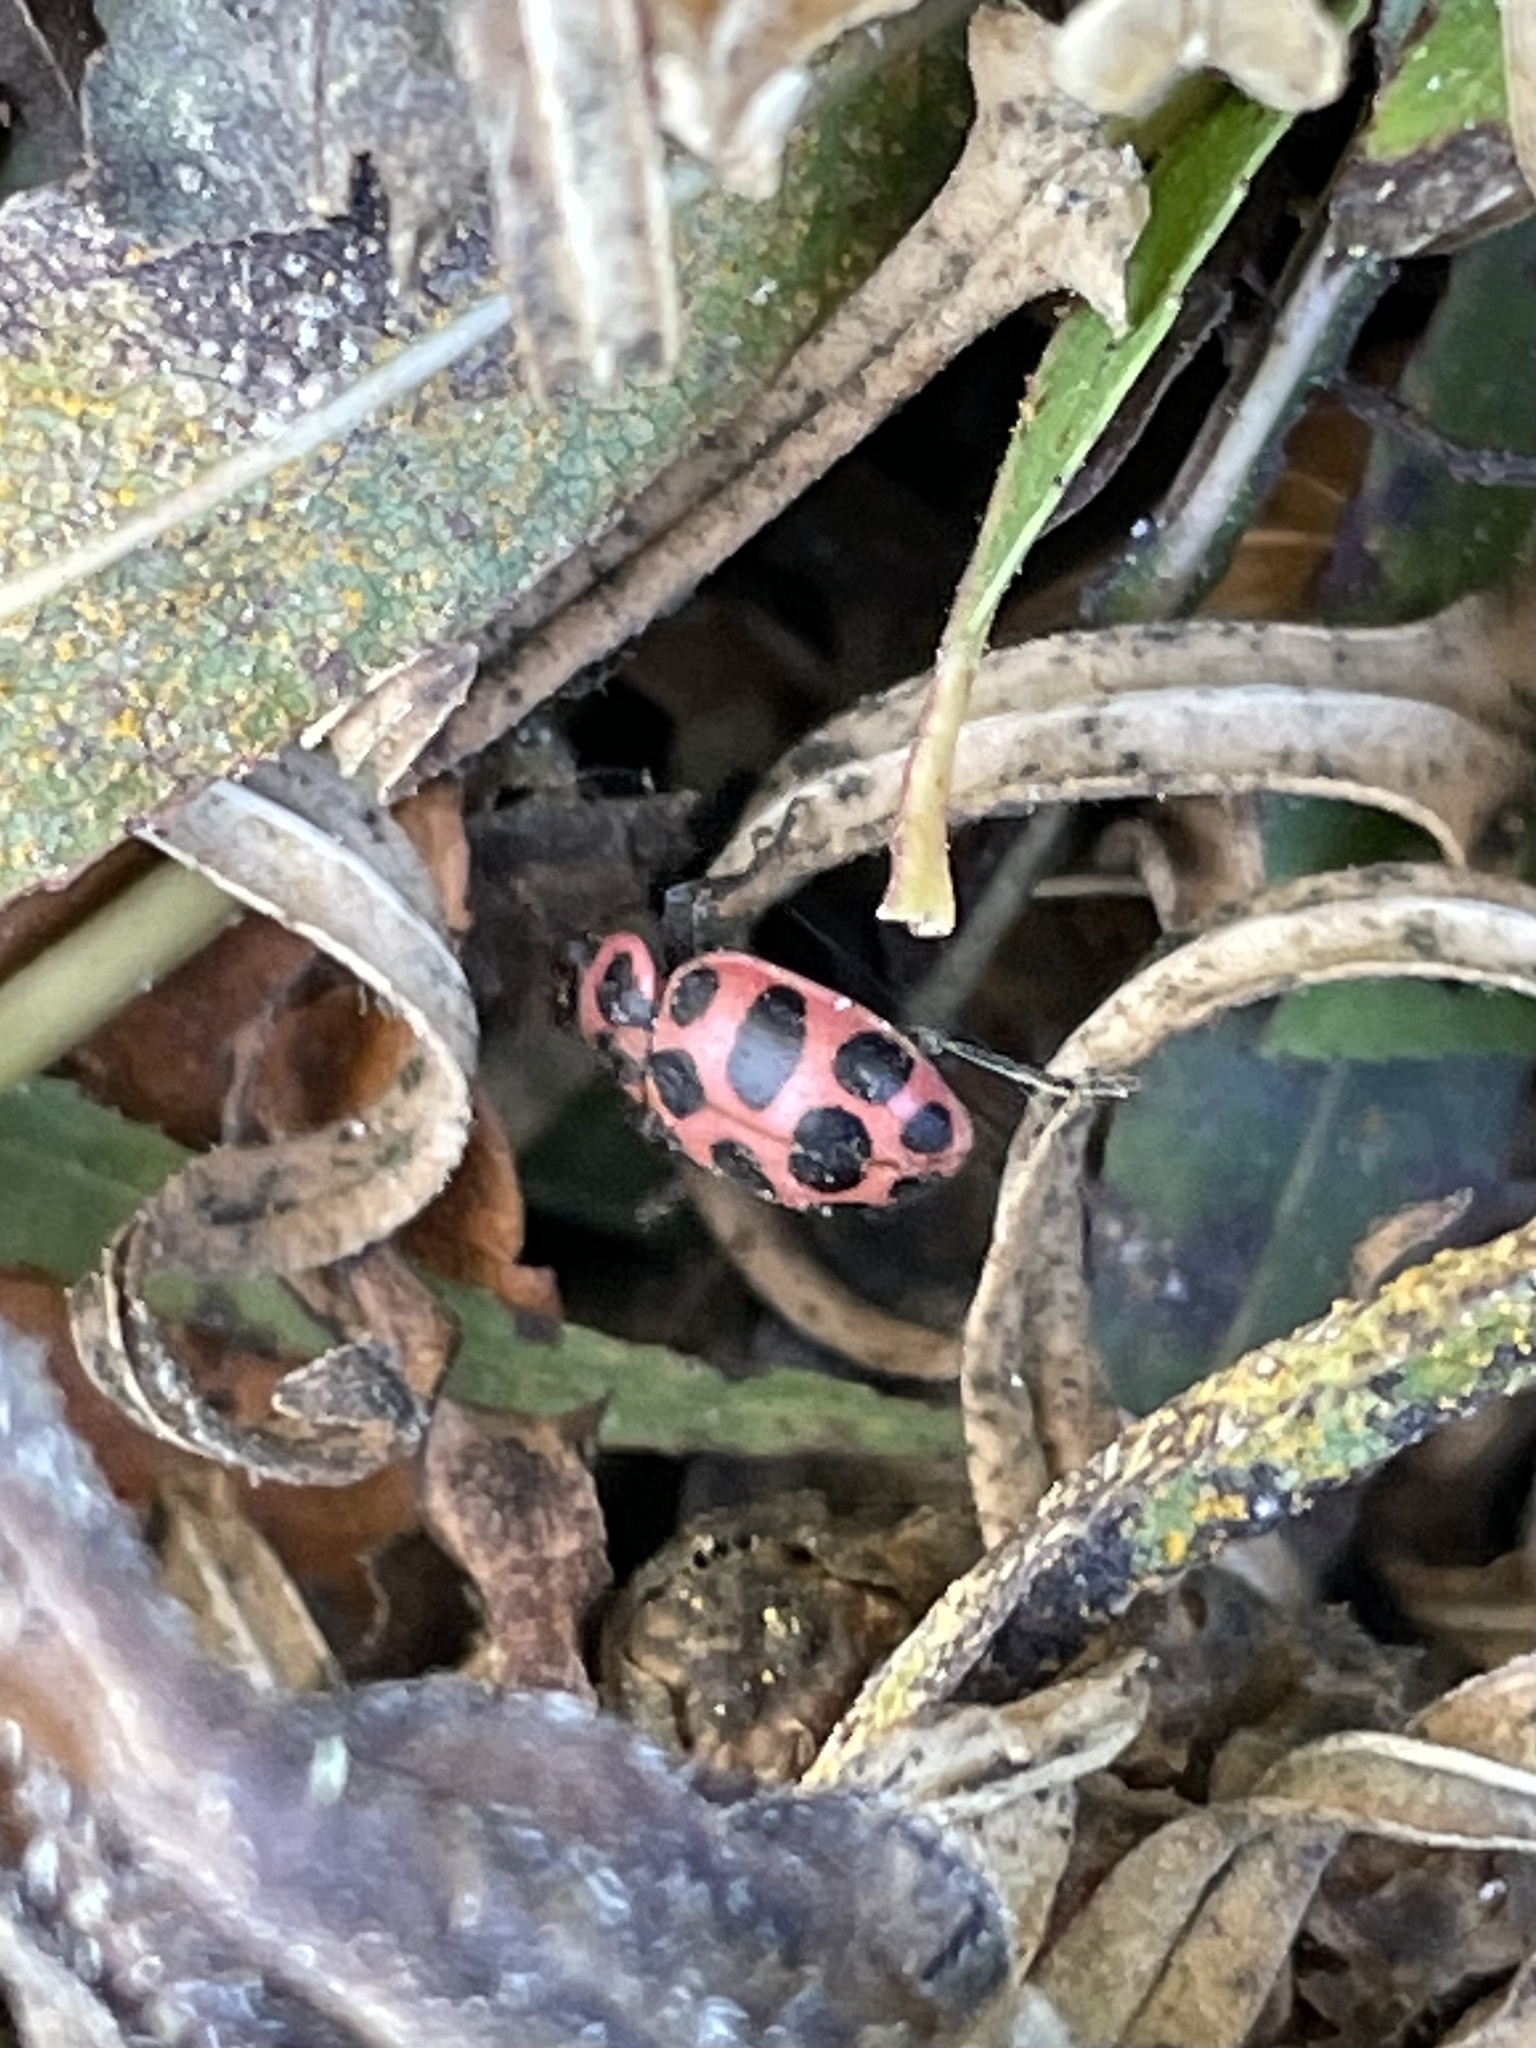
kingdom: Animalia
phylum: Arthropoda
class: Insecta
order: Coleoptera
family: Coccinellidae
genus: Coleomegilla
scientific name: Coleomegilla maculata
